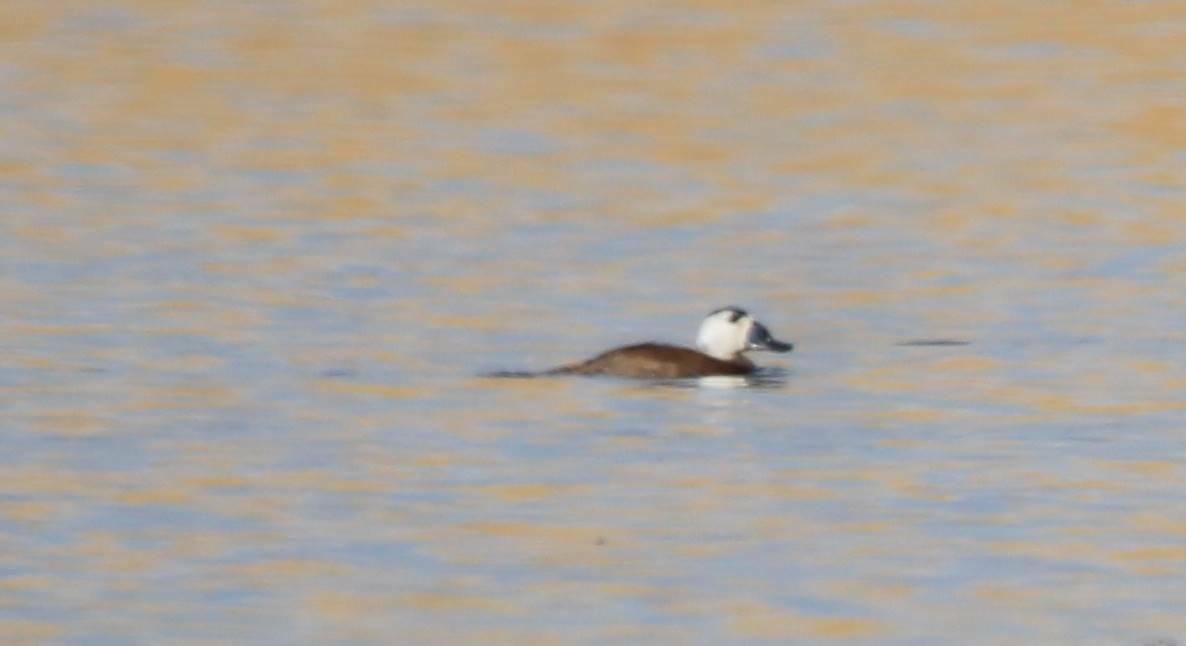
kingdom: Animalia
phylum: Chordata
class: Aves
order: Anseriformes
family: Anatidae
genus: Oxyura
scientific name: Oxyura leucocephala
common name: White-headed duck
